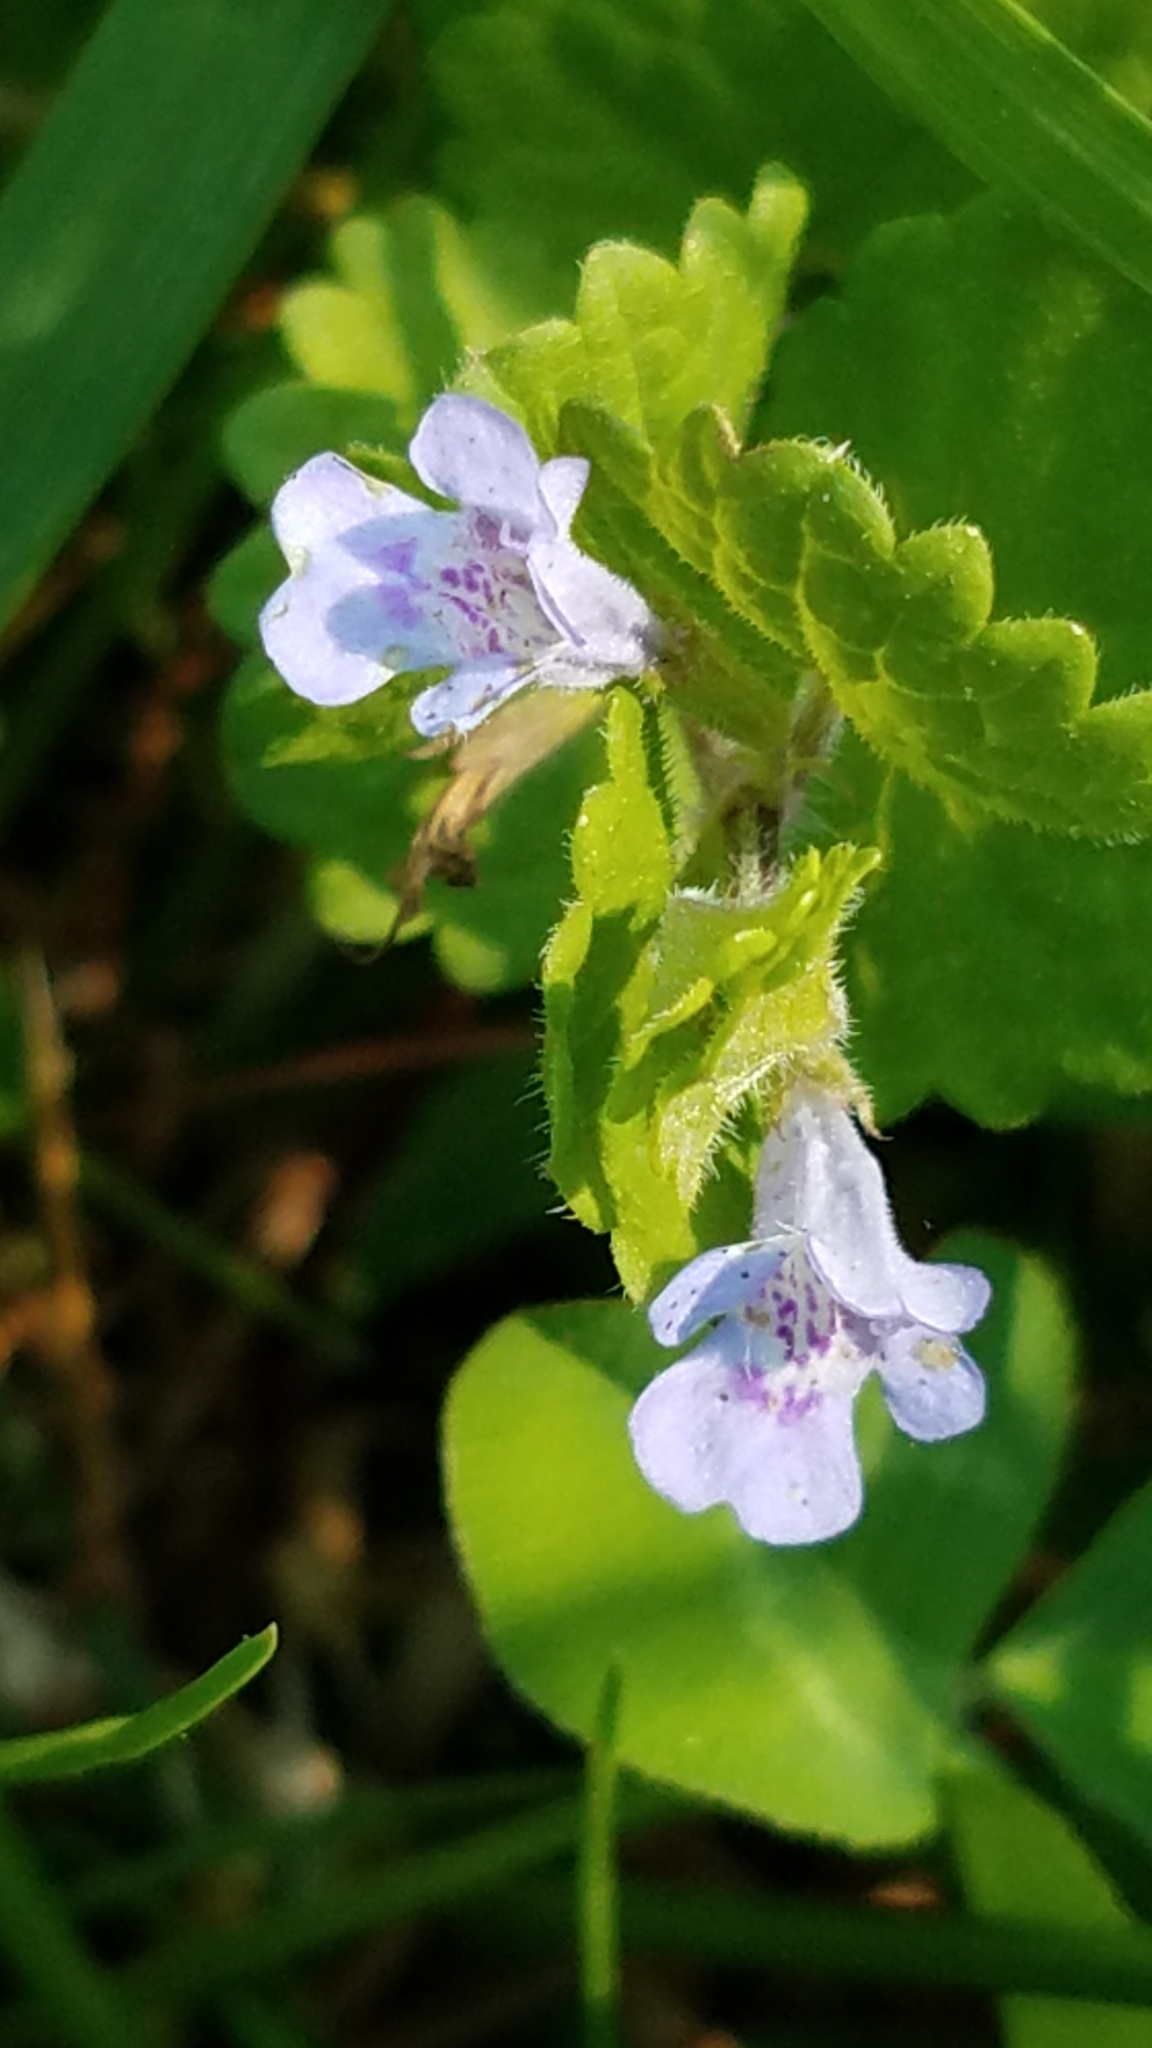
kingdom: Plantae
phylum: Tracheophyta
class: Magnoliopsida
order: Lamiales
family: Lamiaceae
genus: Glechoma
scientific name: Glechoma hederacea
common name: Ground ivy
